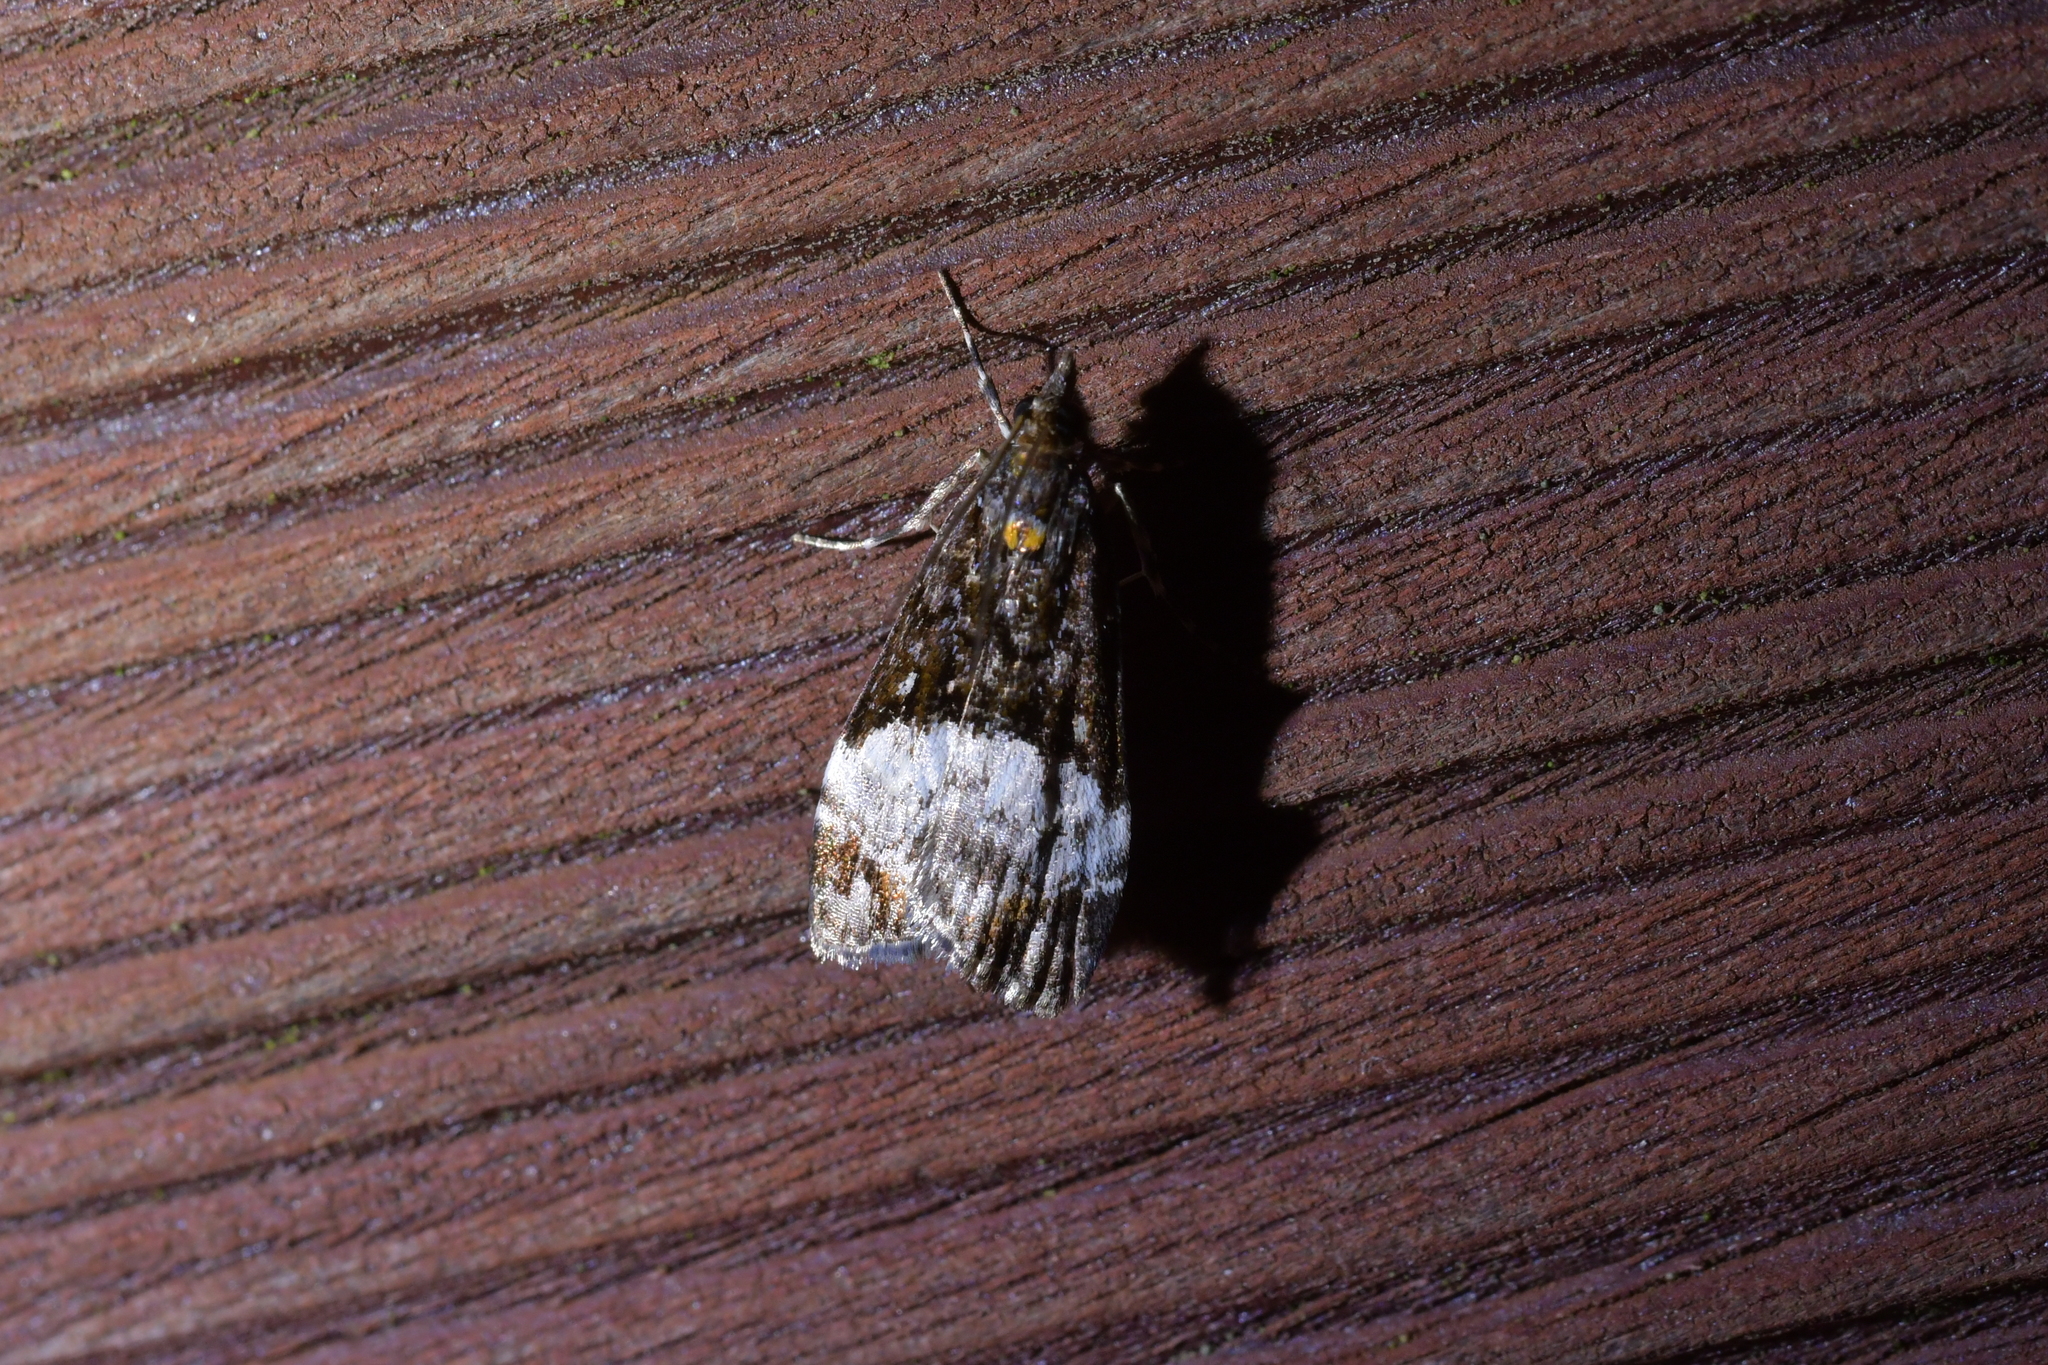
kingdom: Animalia
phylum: Arthropoda
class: Insecta
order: Lepidoptera
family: Crambidae
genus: Scoparia
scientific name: Scoparia minusculalis
